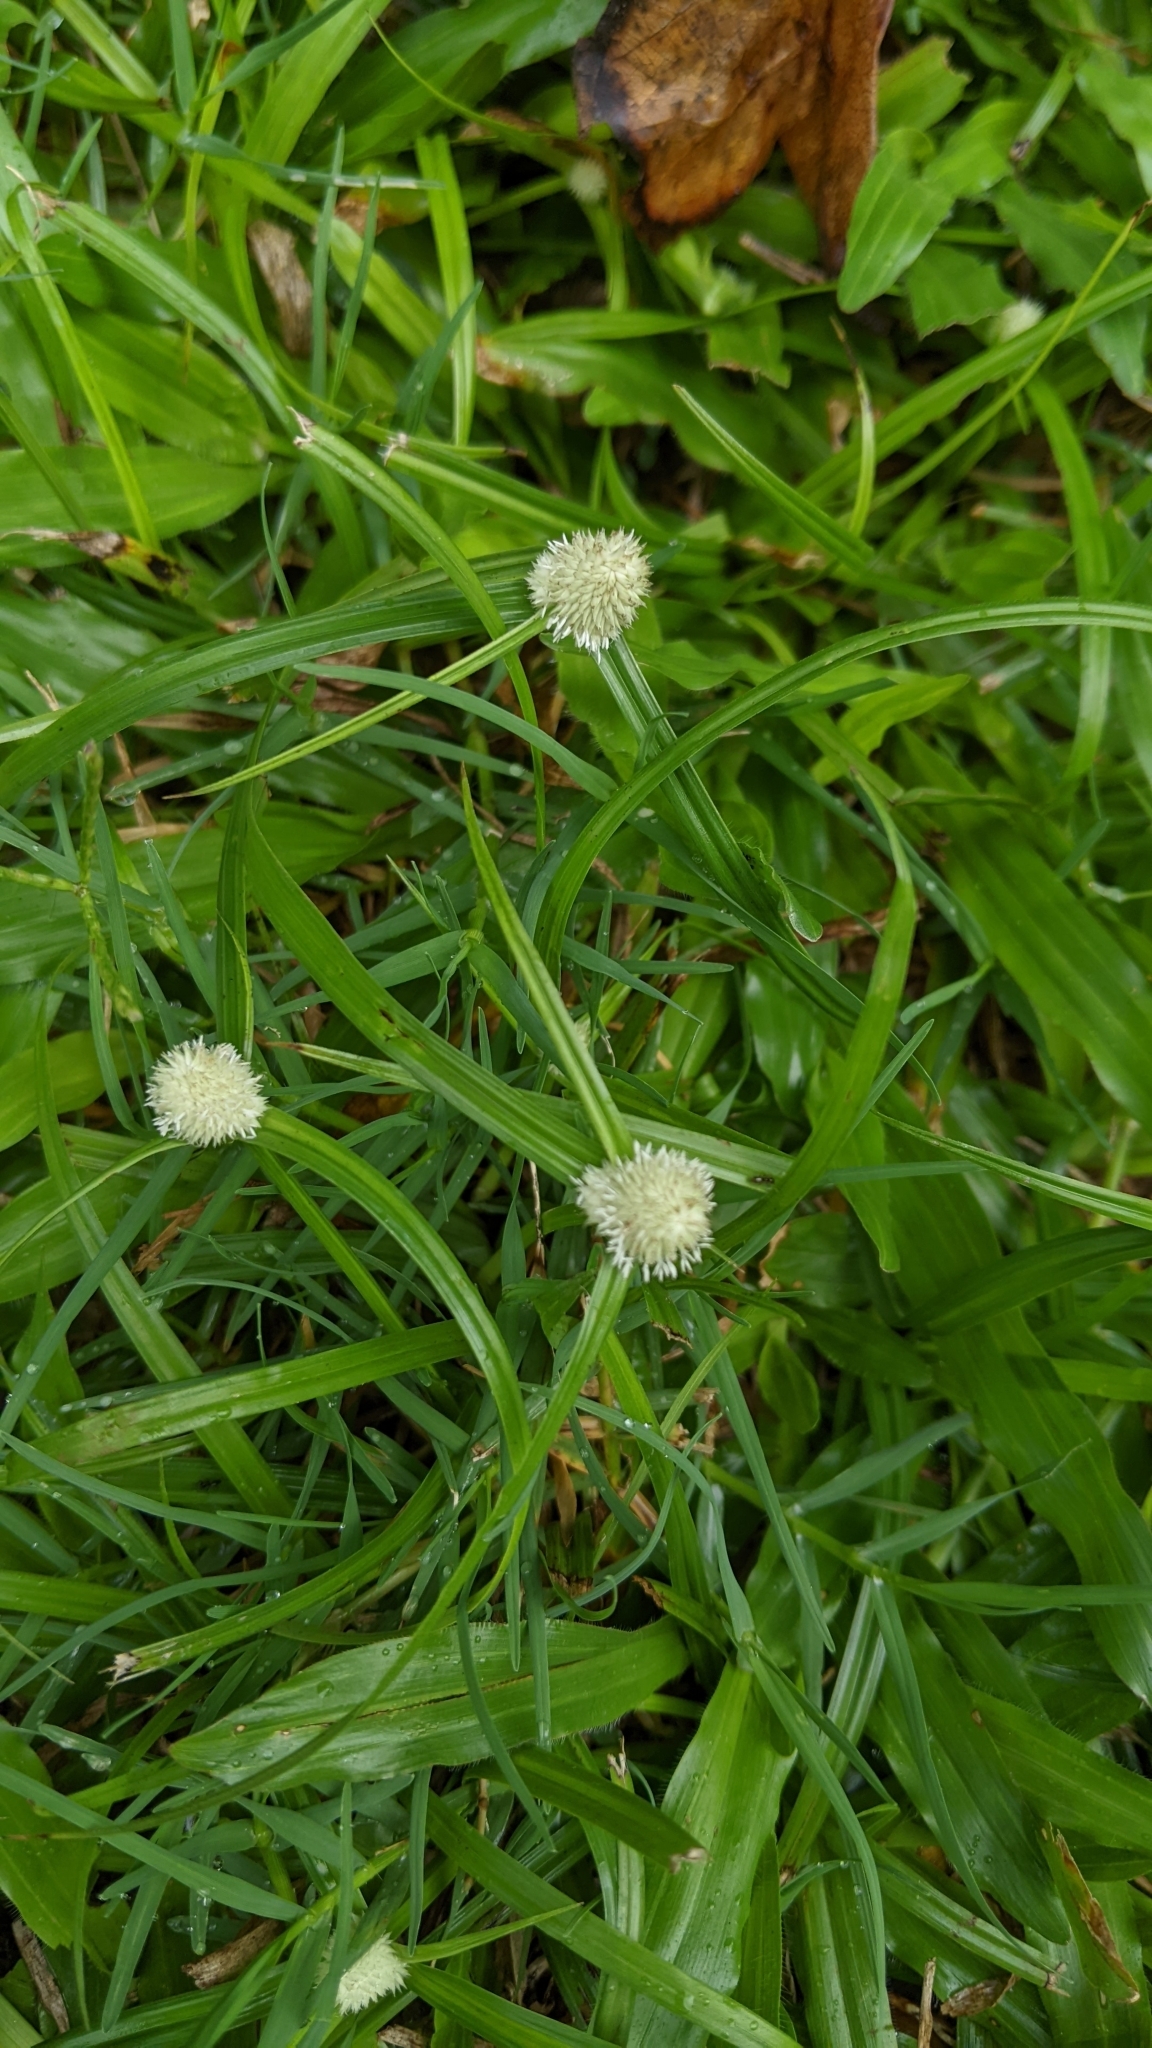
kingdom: Plantae
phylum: Tracheophyta
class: Liliopsida
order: Poales
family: Cyperaceae
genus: Cyperus
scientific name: Cyperus mindorensis
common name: Flatsedge
